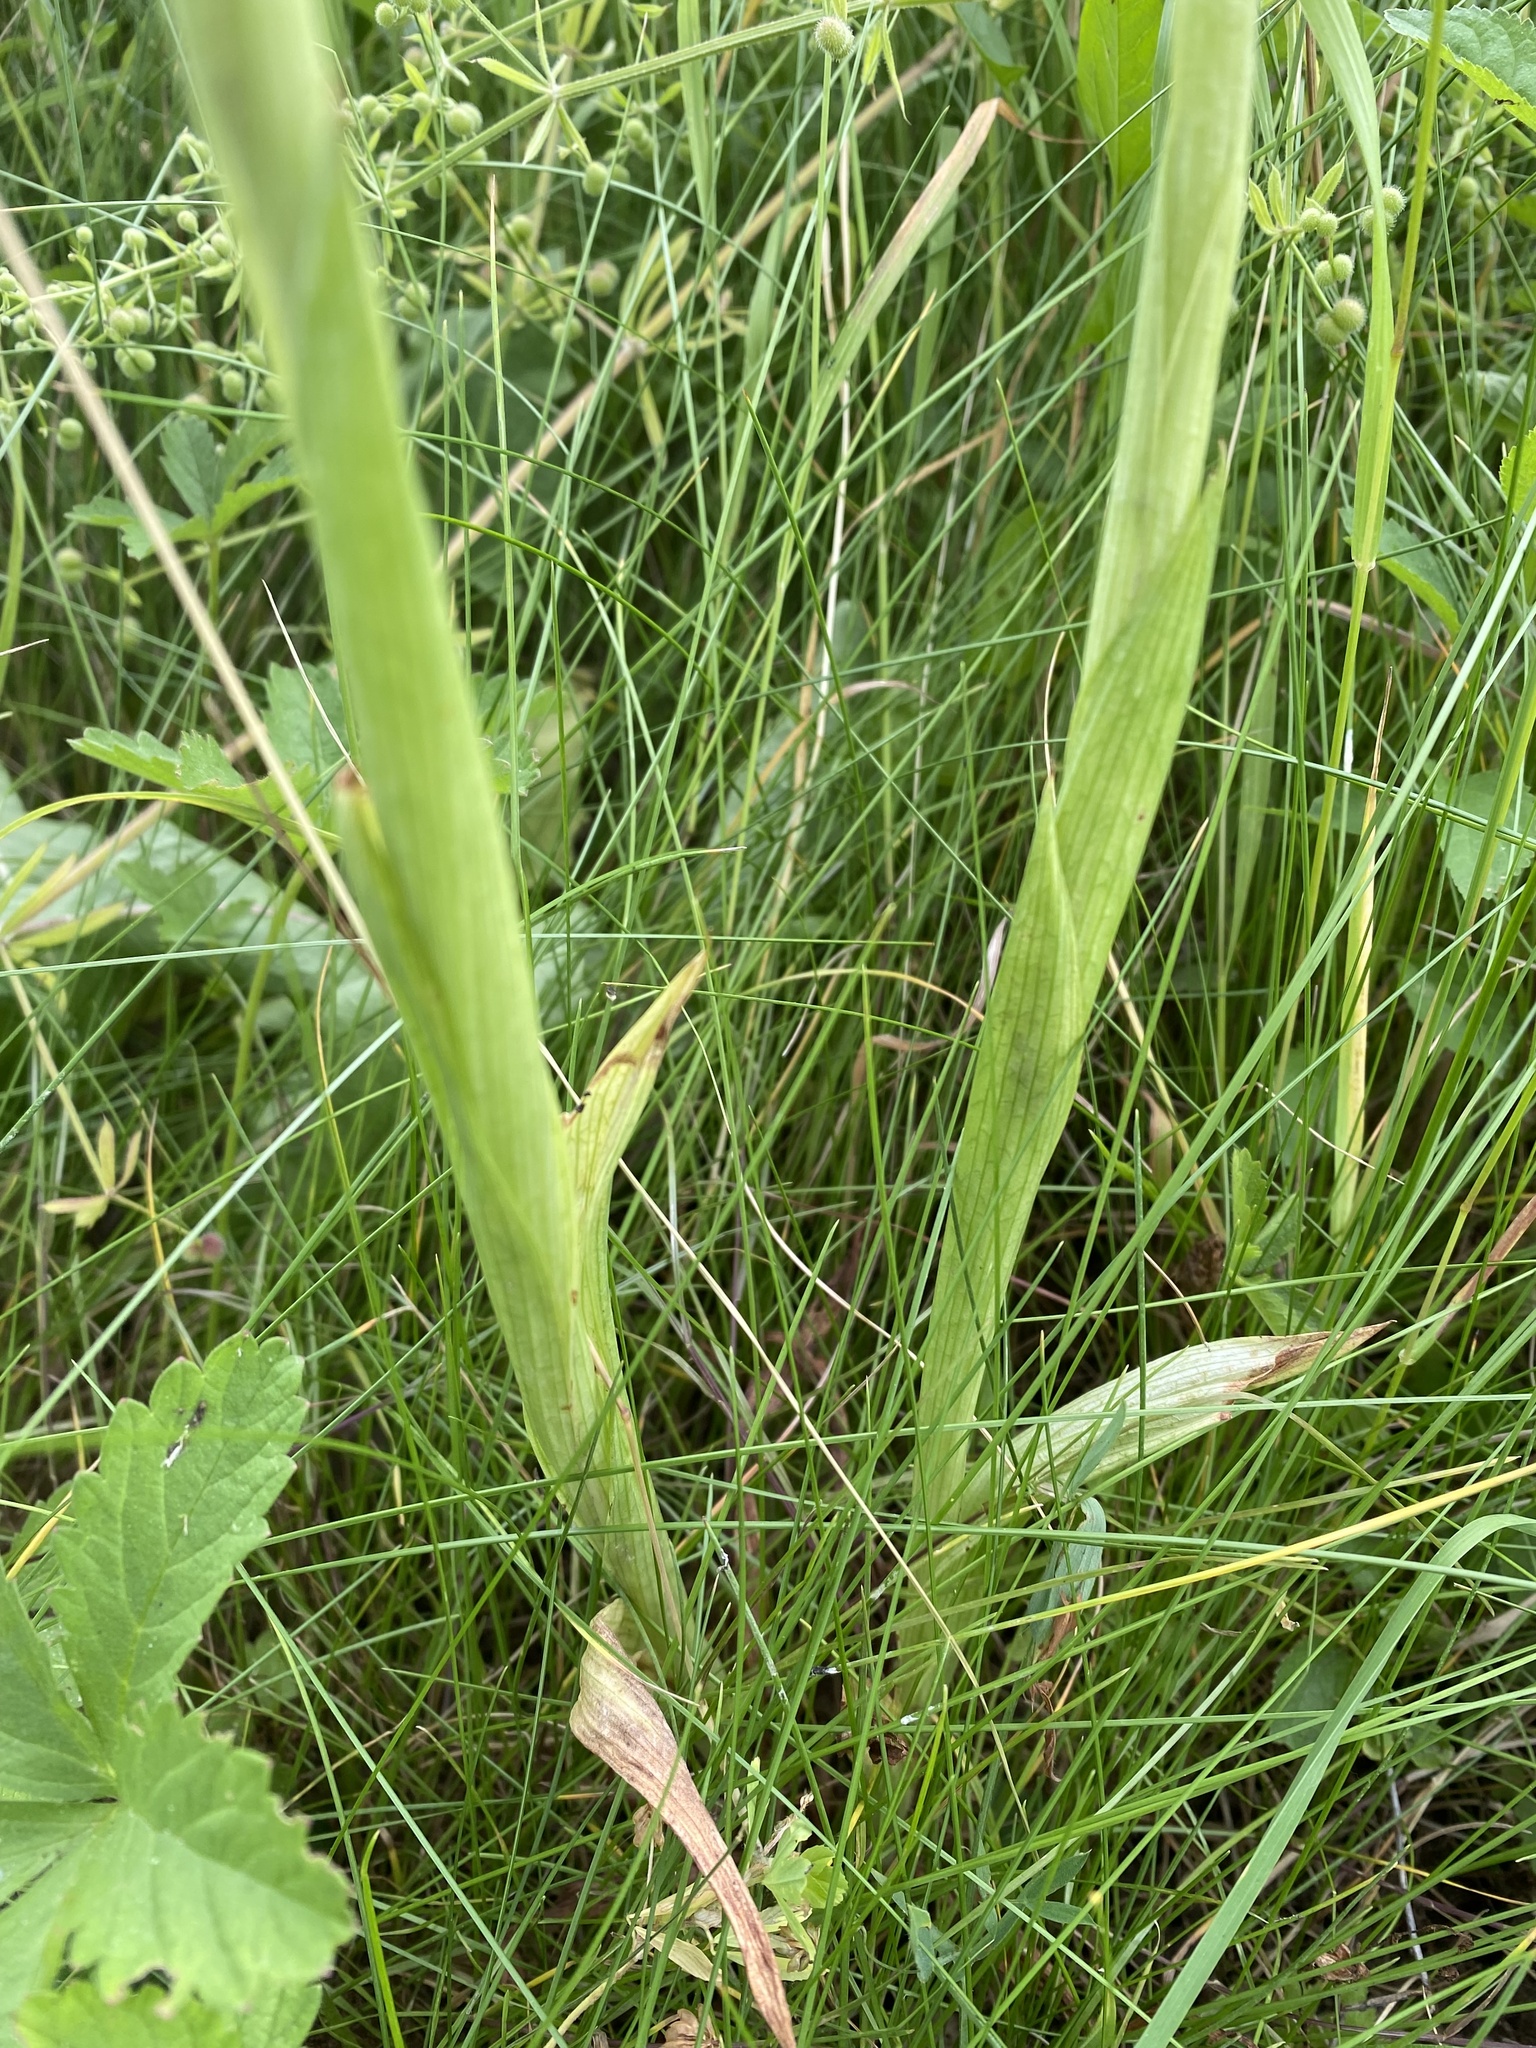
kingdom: Plantae
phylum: Tracheophyta
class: Liliopsida
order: Asparagales
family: Orchidaceae
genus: Anacamptis
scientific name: Anacamptis pyramidalis
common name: Pyramidal orchid
